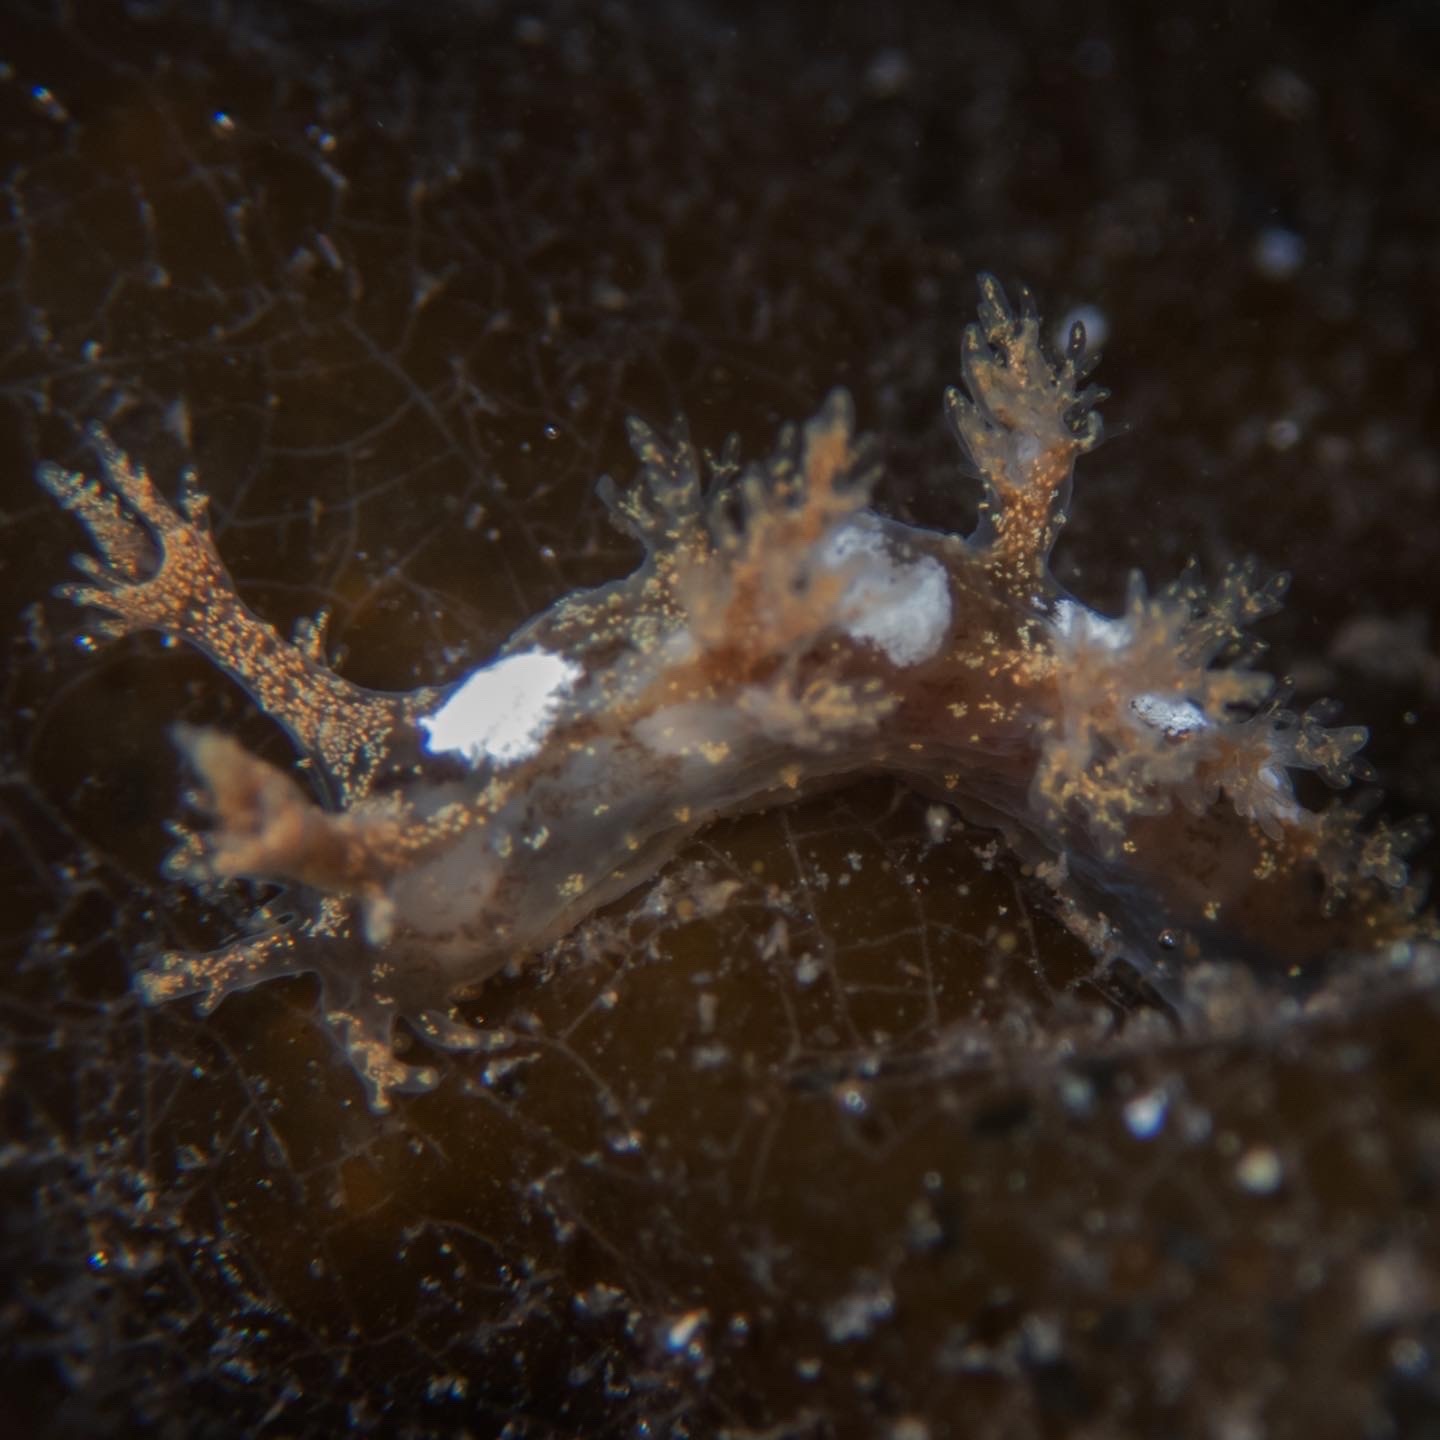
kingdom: Animalia
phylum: Mollusca
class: Gastropoda
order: Nudibranchia
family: Dendronotidae
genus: Dendronotus
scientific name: Dendronotus venustus
